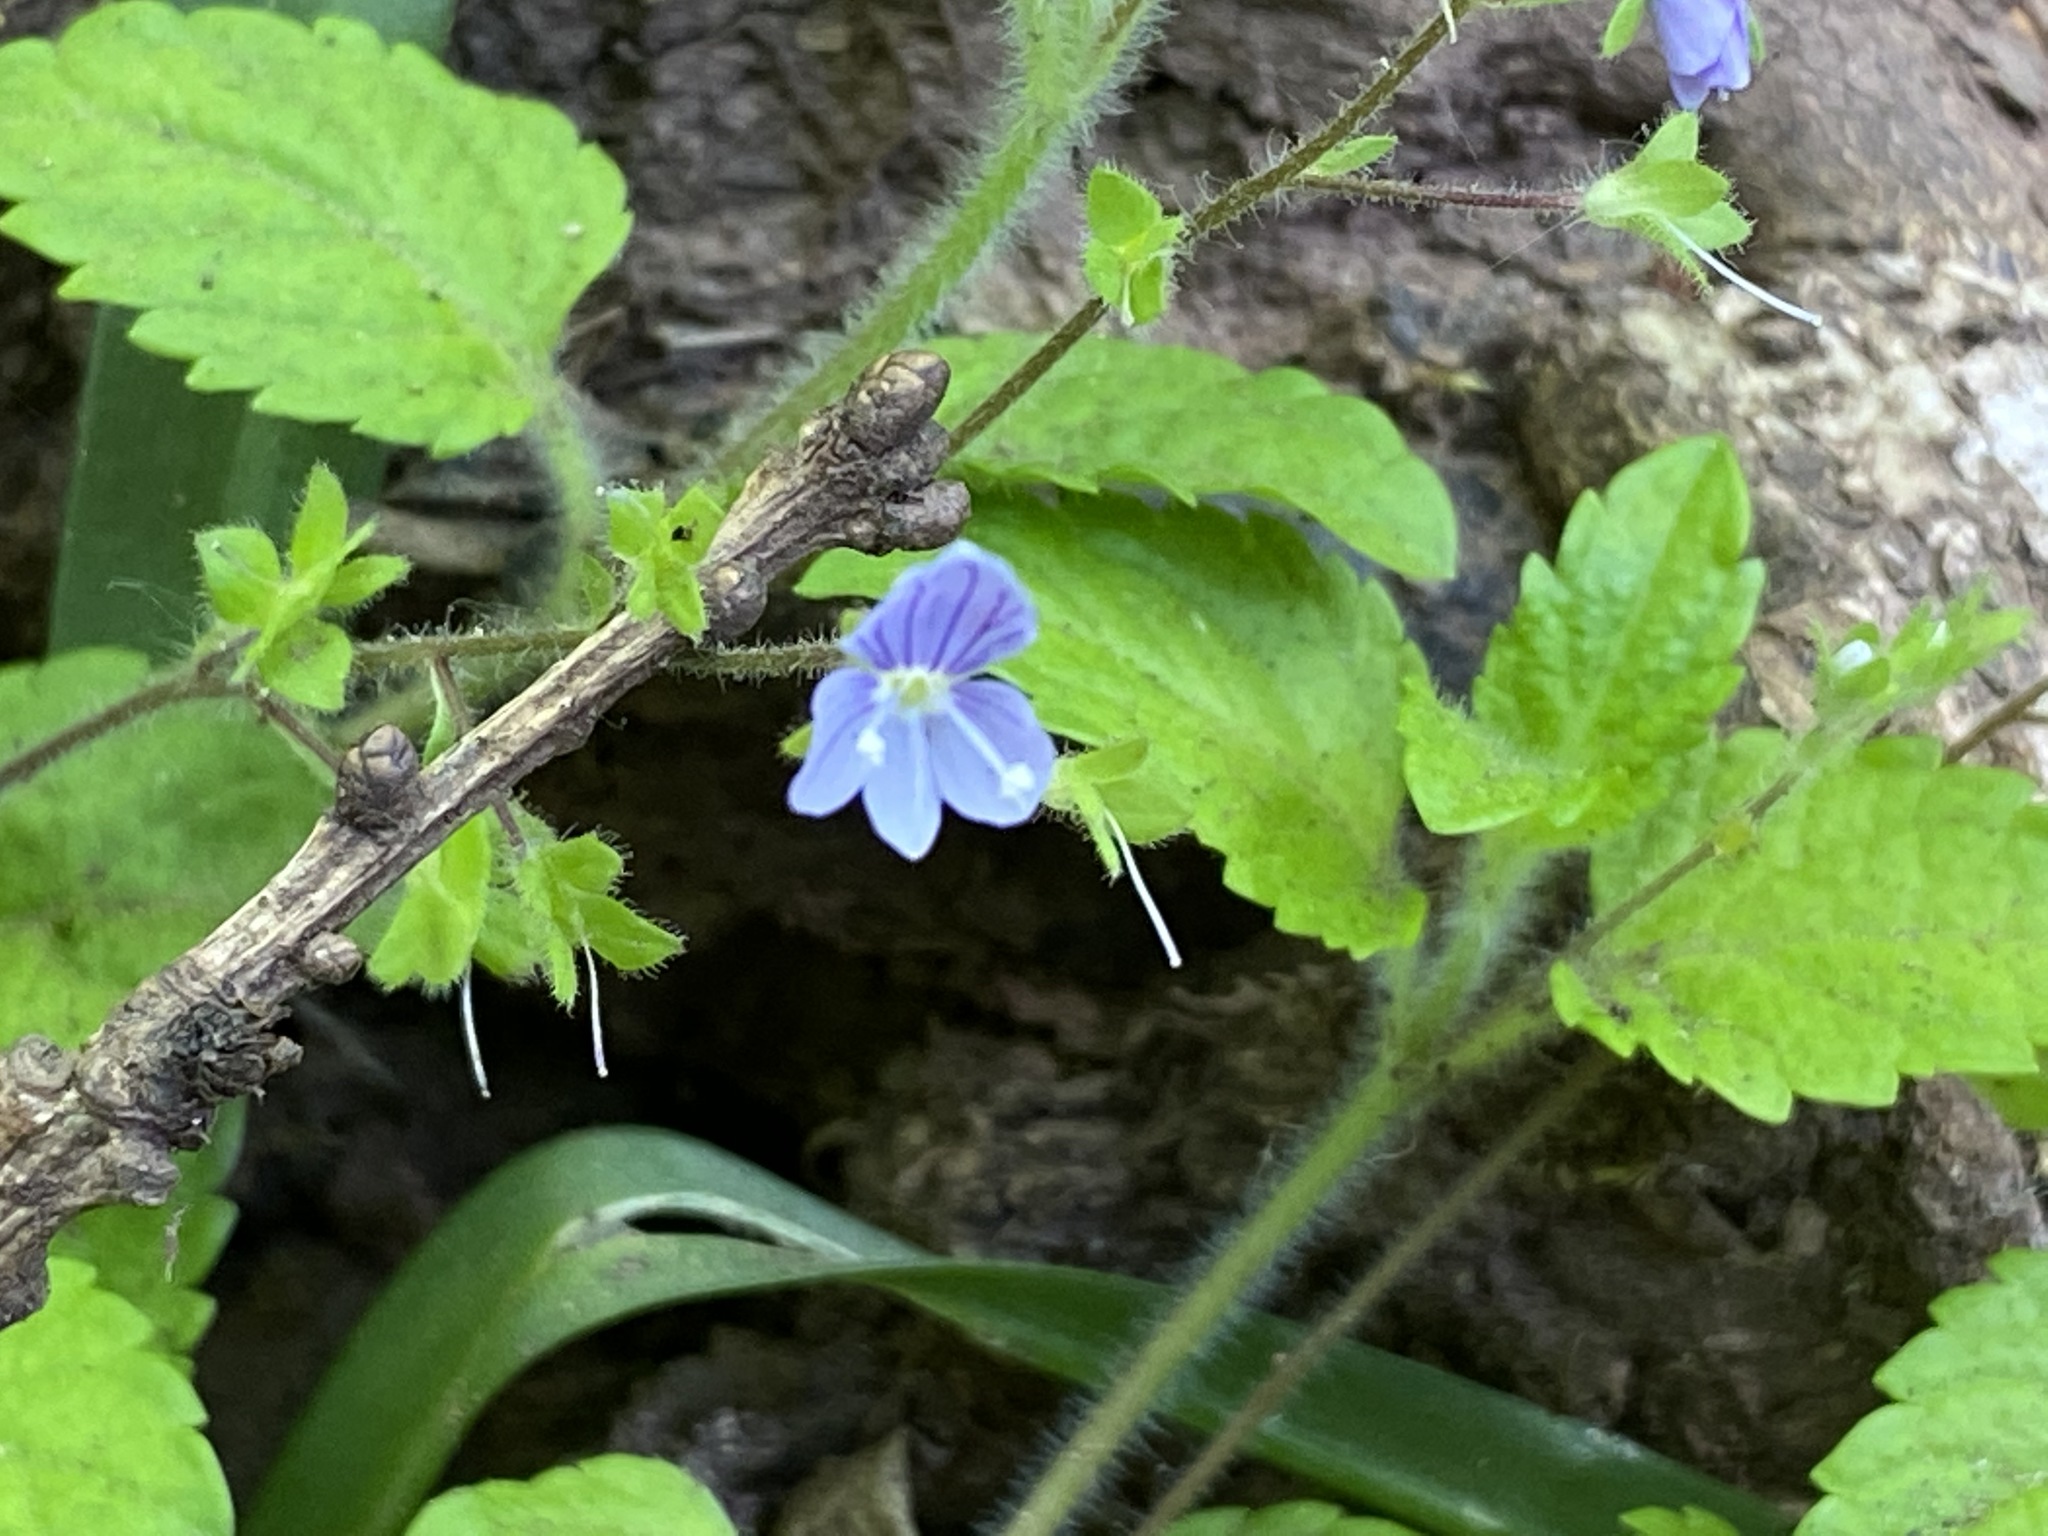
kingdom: Plantae
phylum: Tracheophyta
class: Magnoliopsida
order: Lamiales
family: Plantaginaceae
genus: Veronica
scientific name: Veronica montana
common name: Wood speedwell
